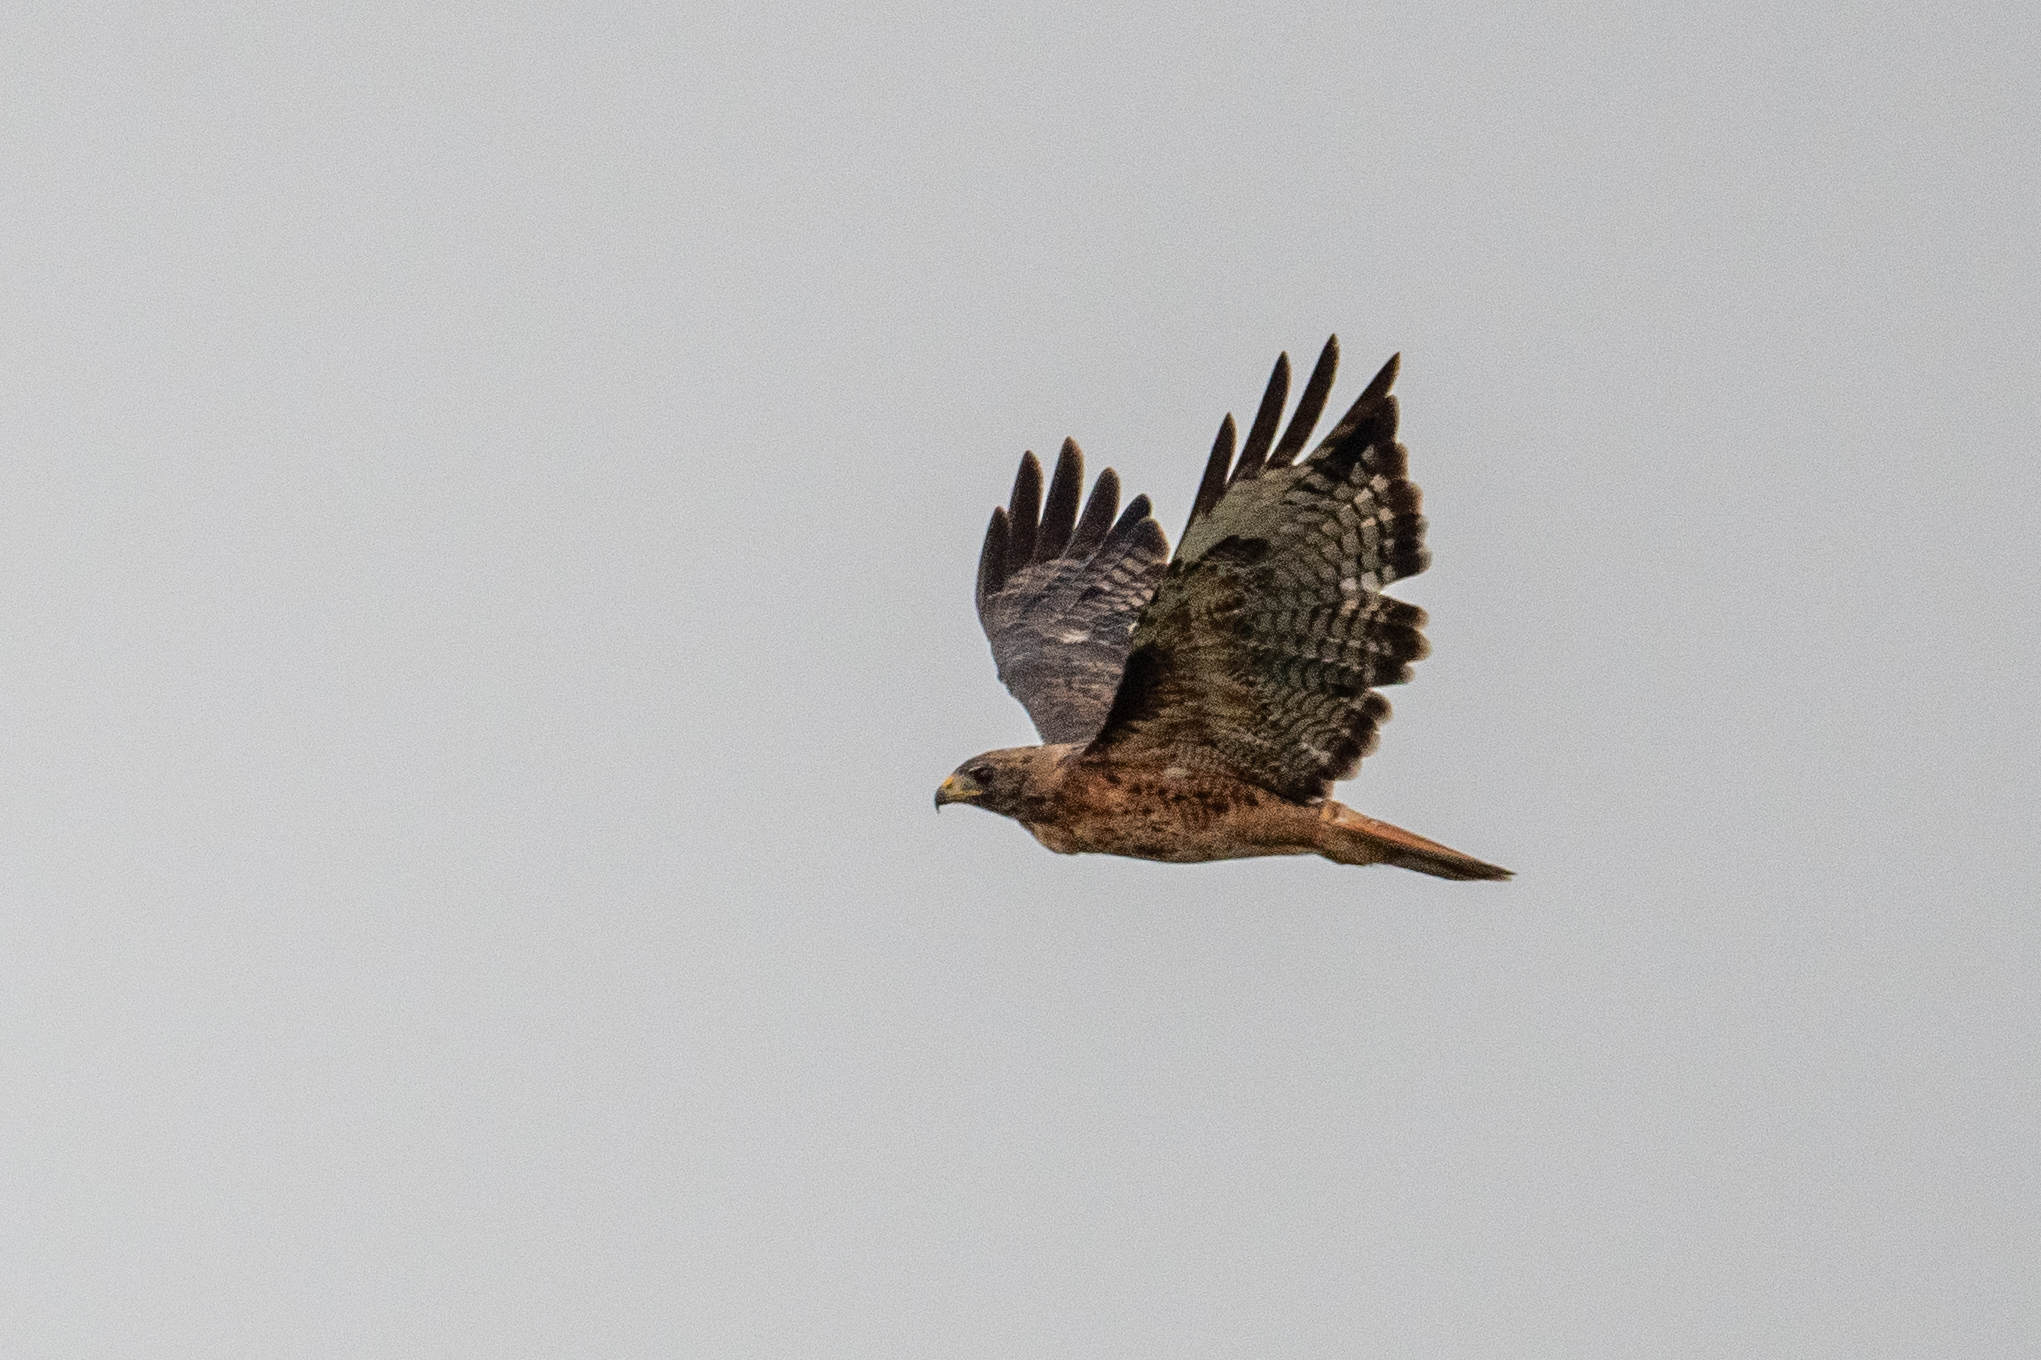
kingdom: Animalia
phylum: Chordata
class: Aves
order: Accipitriformes
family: Accipitridae
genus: Buteo
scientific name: Buteo jamaicensis
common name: Red-tailed hawk
